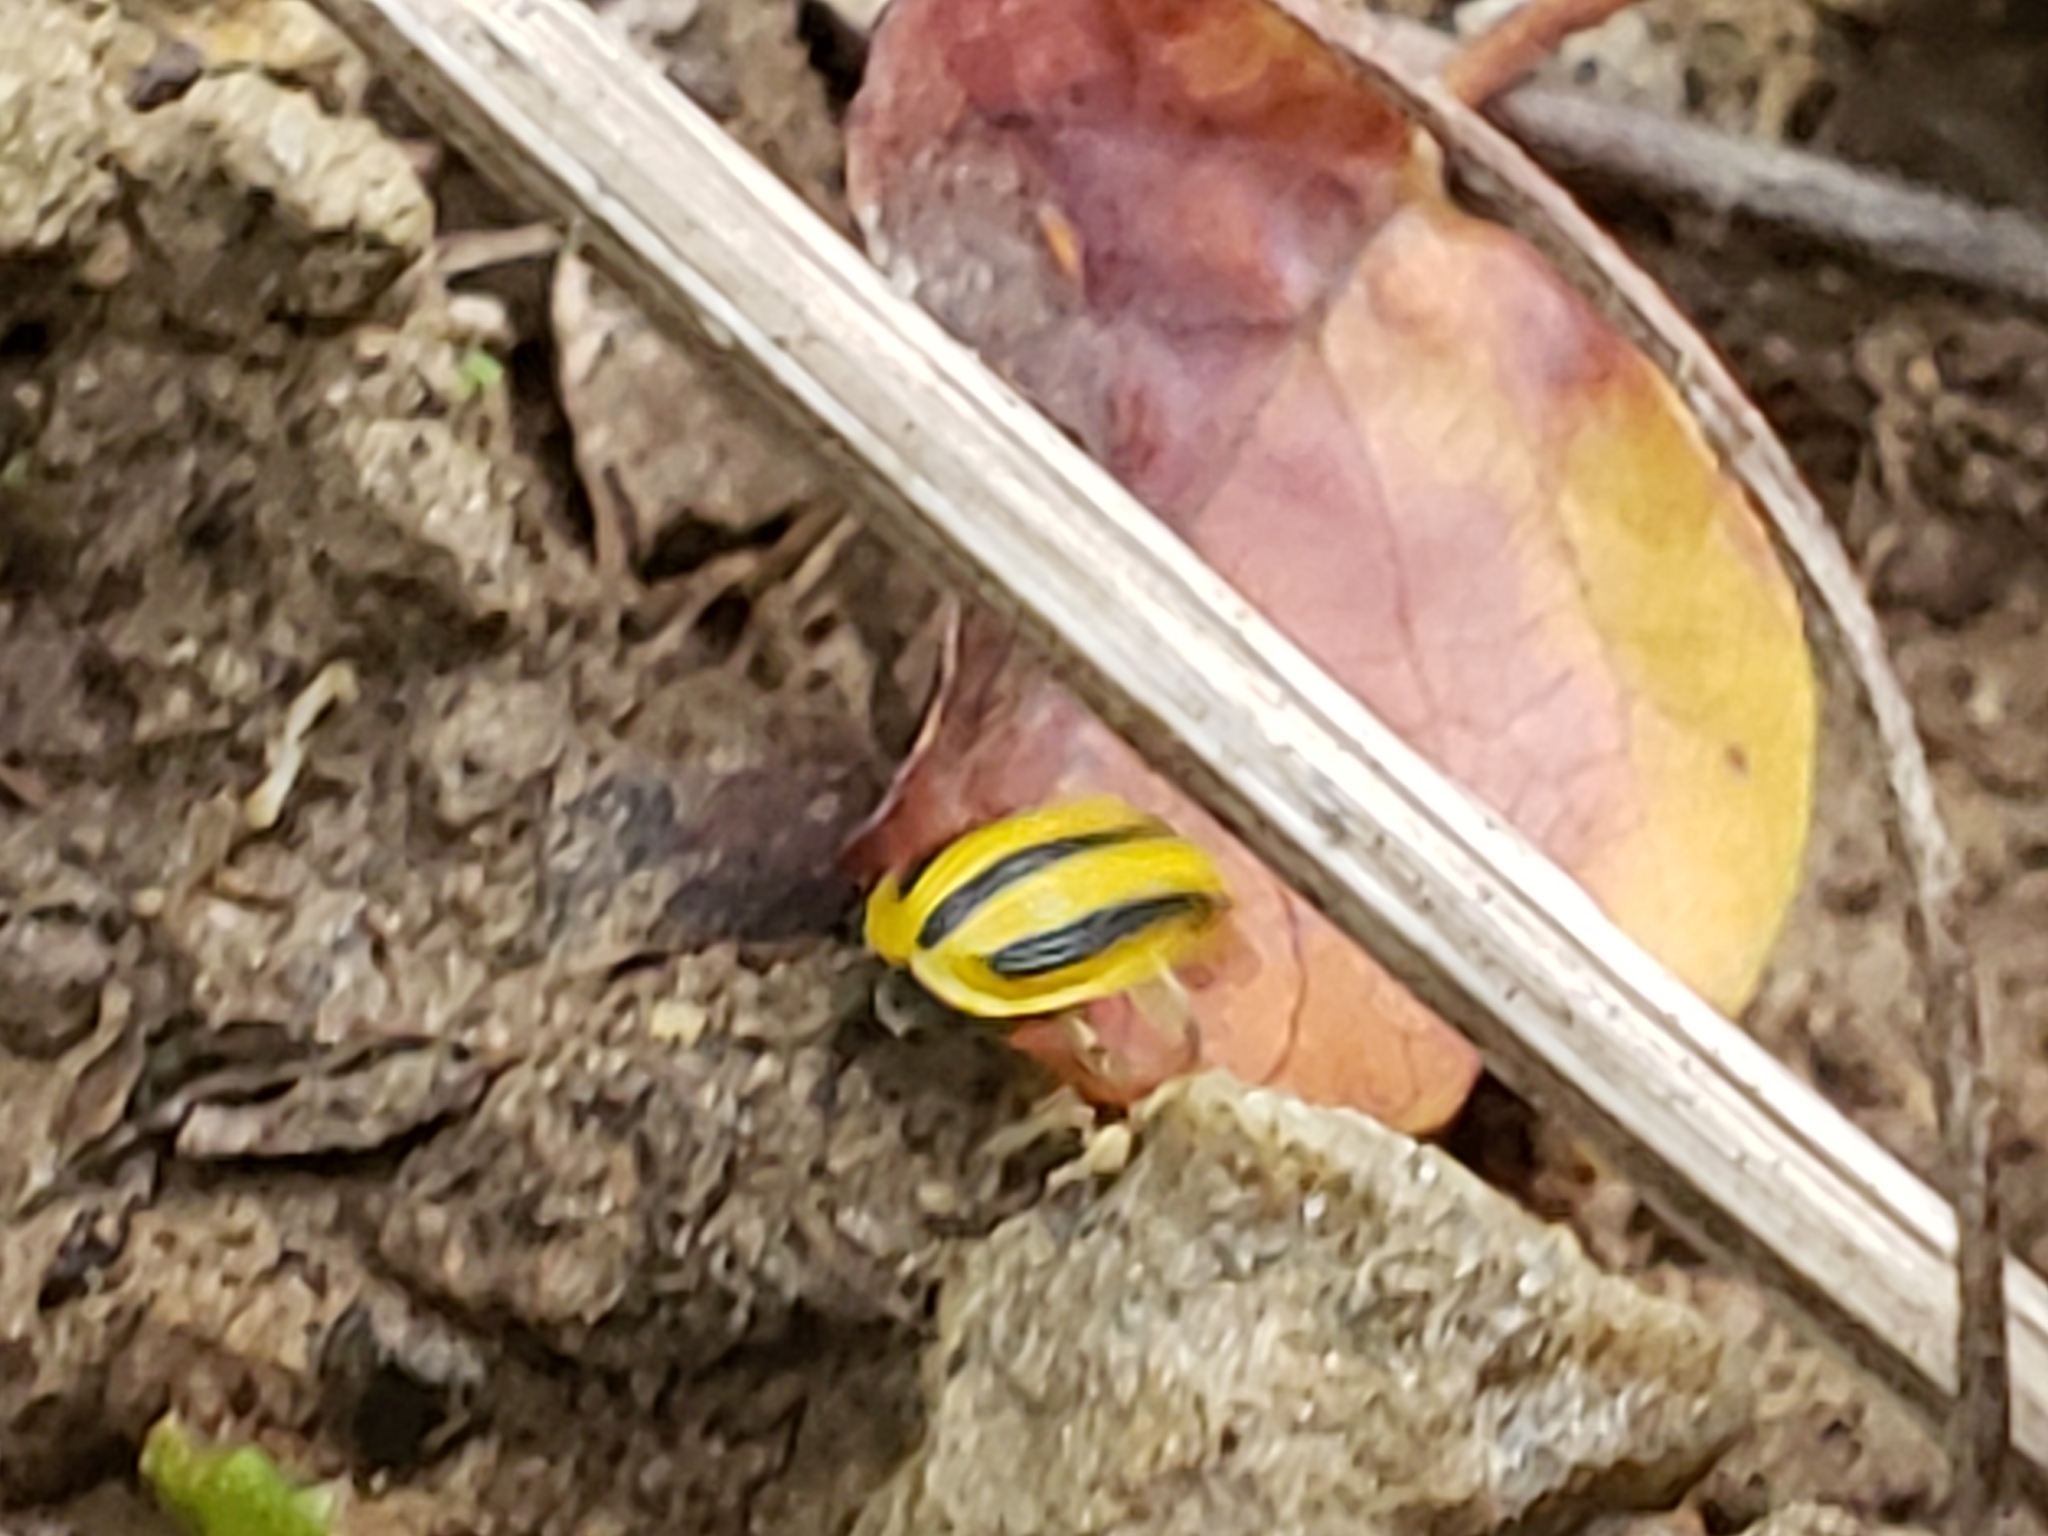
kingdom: Animalia
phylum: Arthropoda
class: Insecta
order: Coleoptera
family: Chrysomelidae
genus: Acalymma
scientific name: Acalymma vittatum
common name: Striped cucumber beetle
